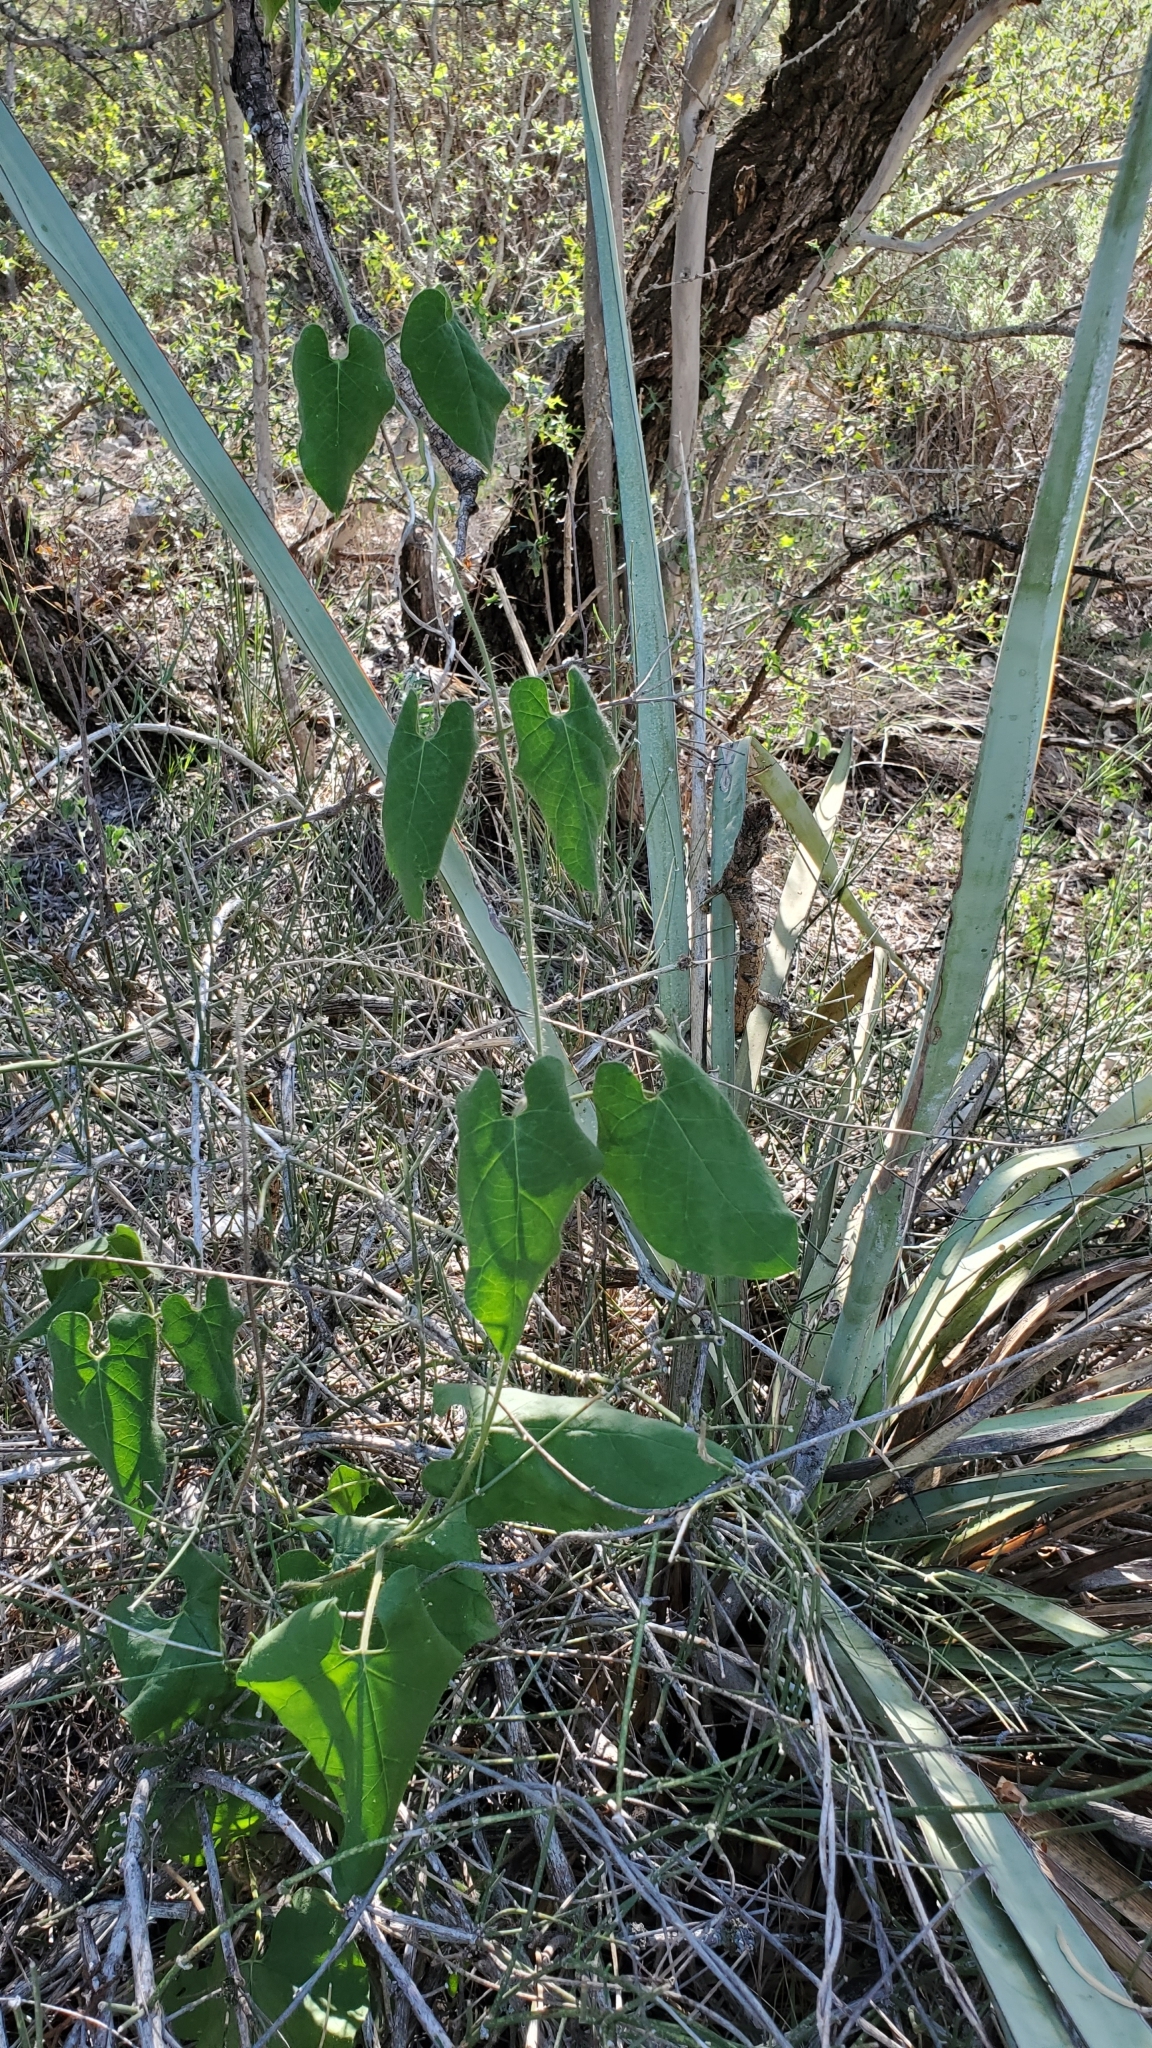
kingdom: Plantae
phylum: Tracheophyta
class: Magnoliopsida
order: Gentianales
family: Apocynaceae
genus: Dictyanthus
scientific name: Dictyanthus reticulatus
